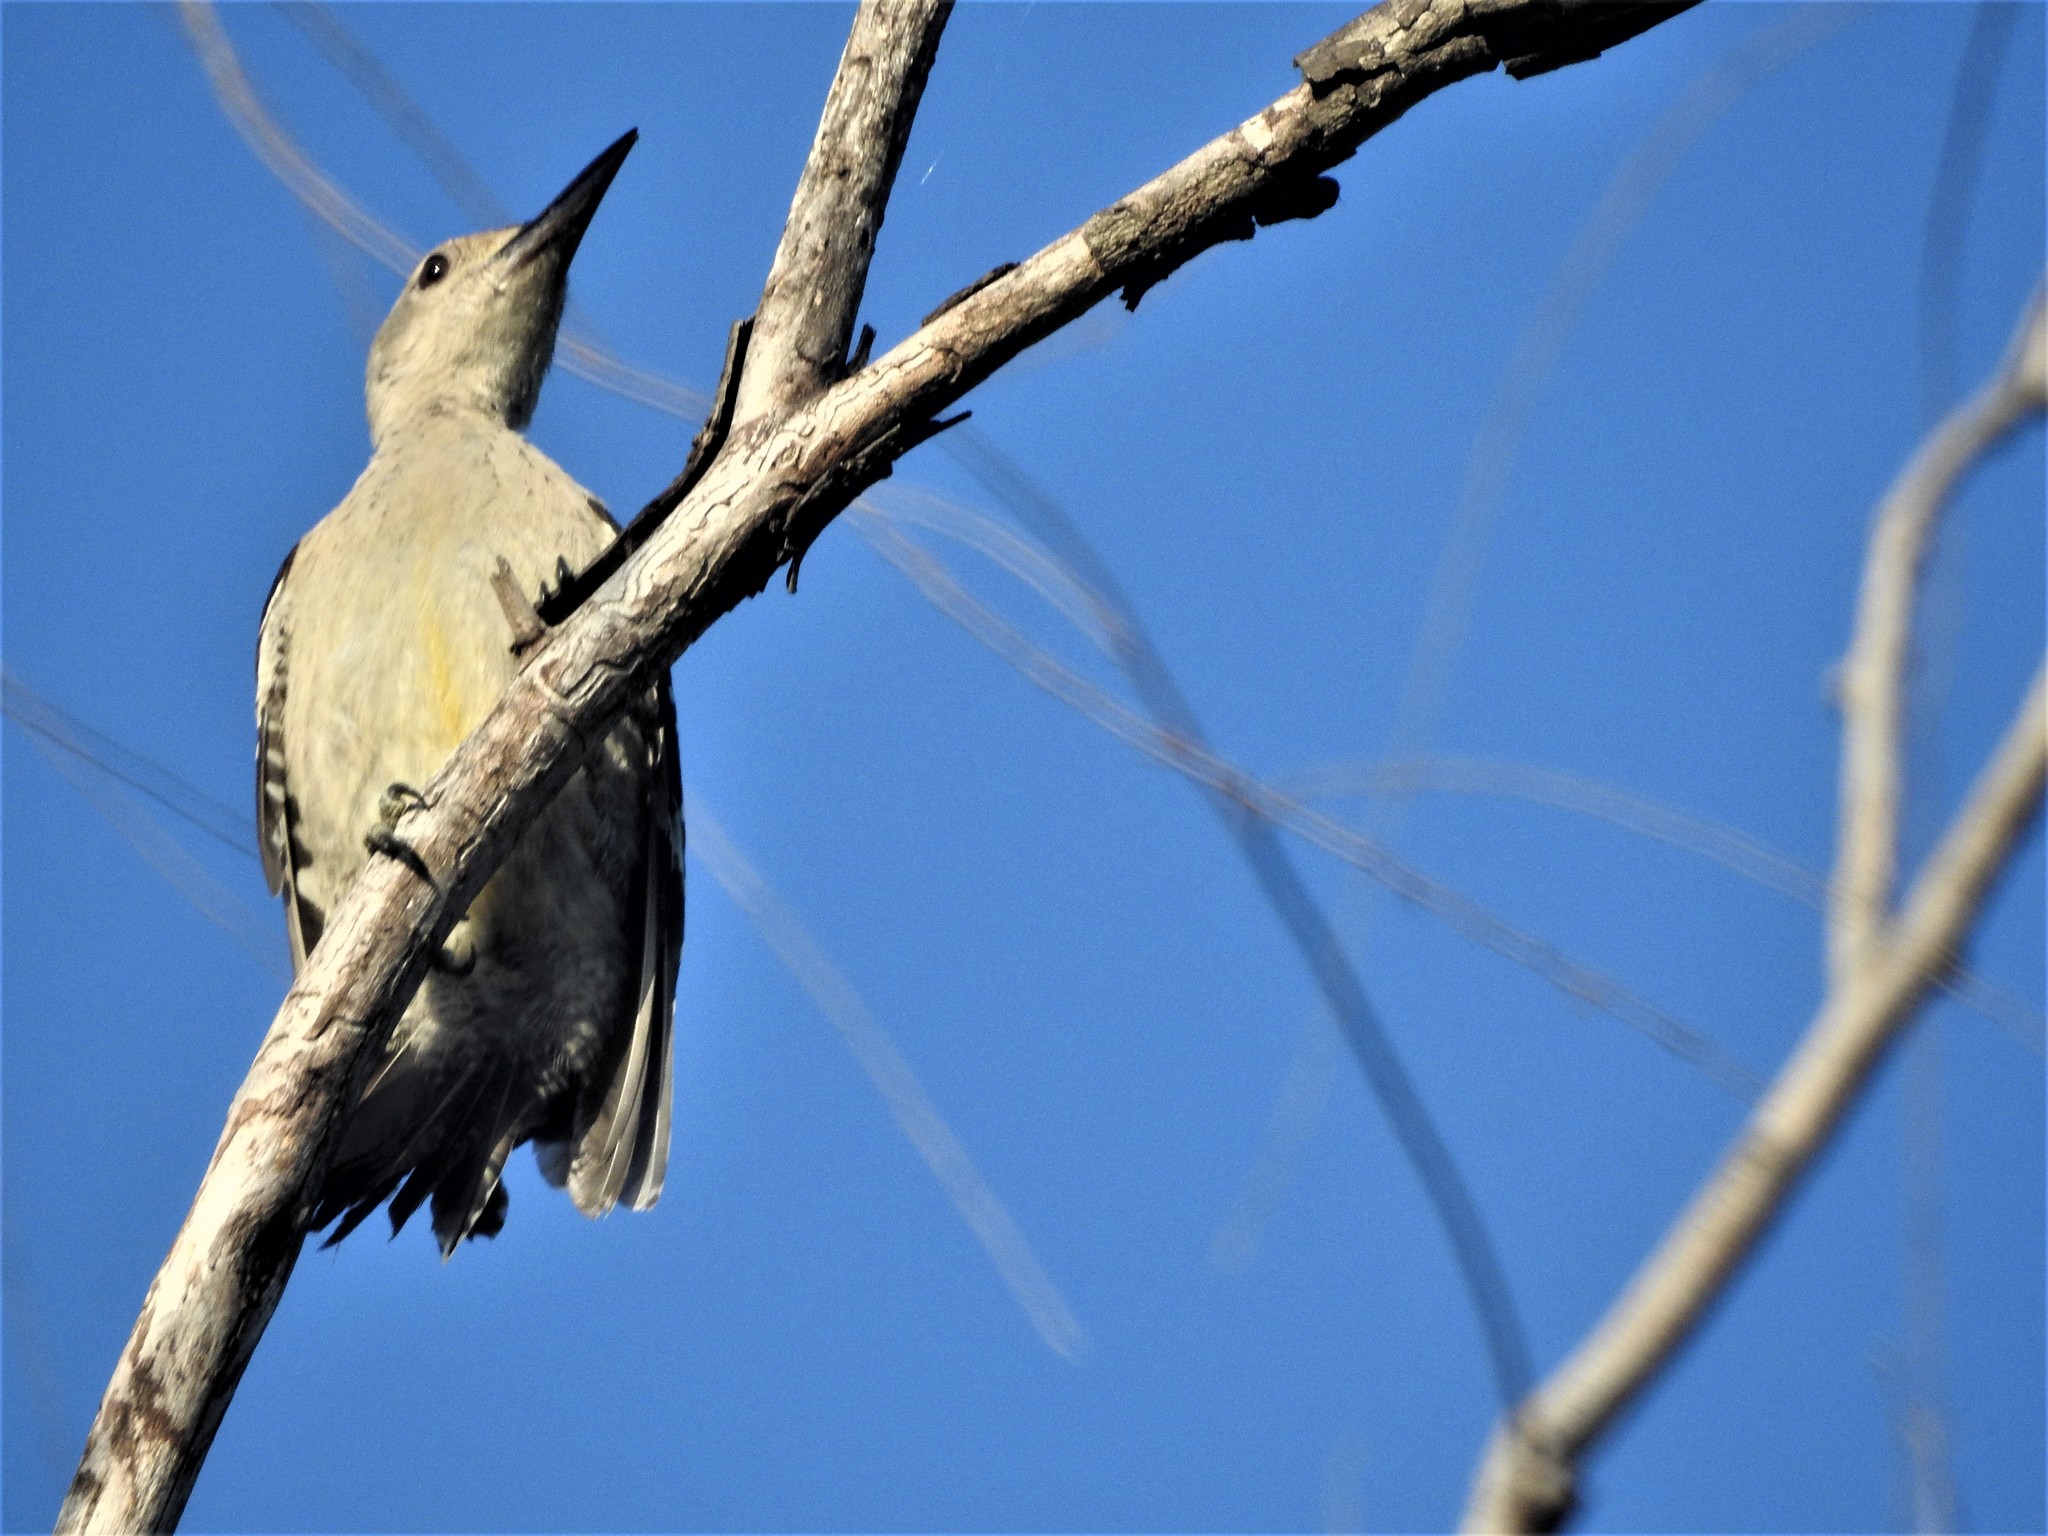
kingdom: Animalia
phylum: Chordata
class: Aves
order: Piciformes
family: Picidae
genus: Melanerpes
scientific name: Melanerpes aurifrons
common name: Golden-fronted woodpecker
